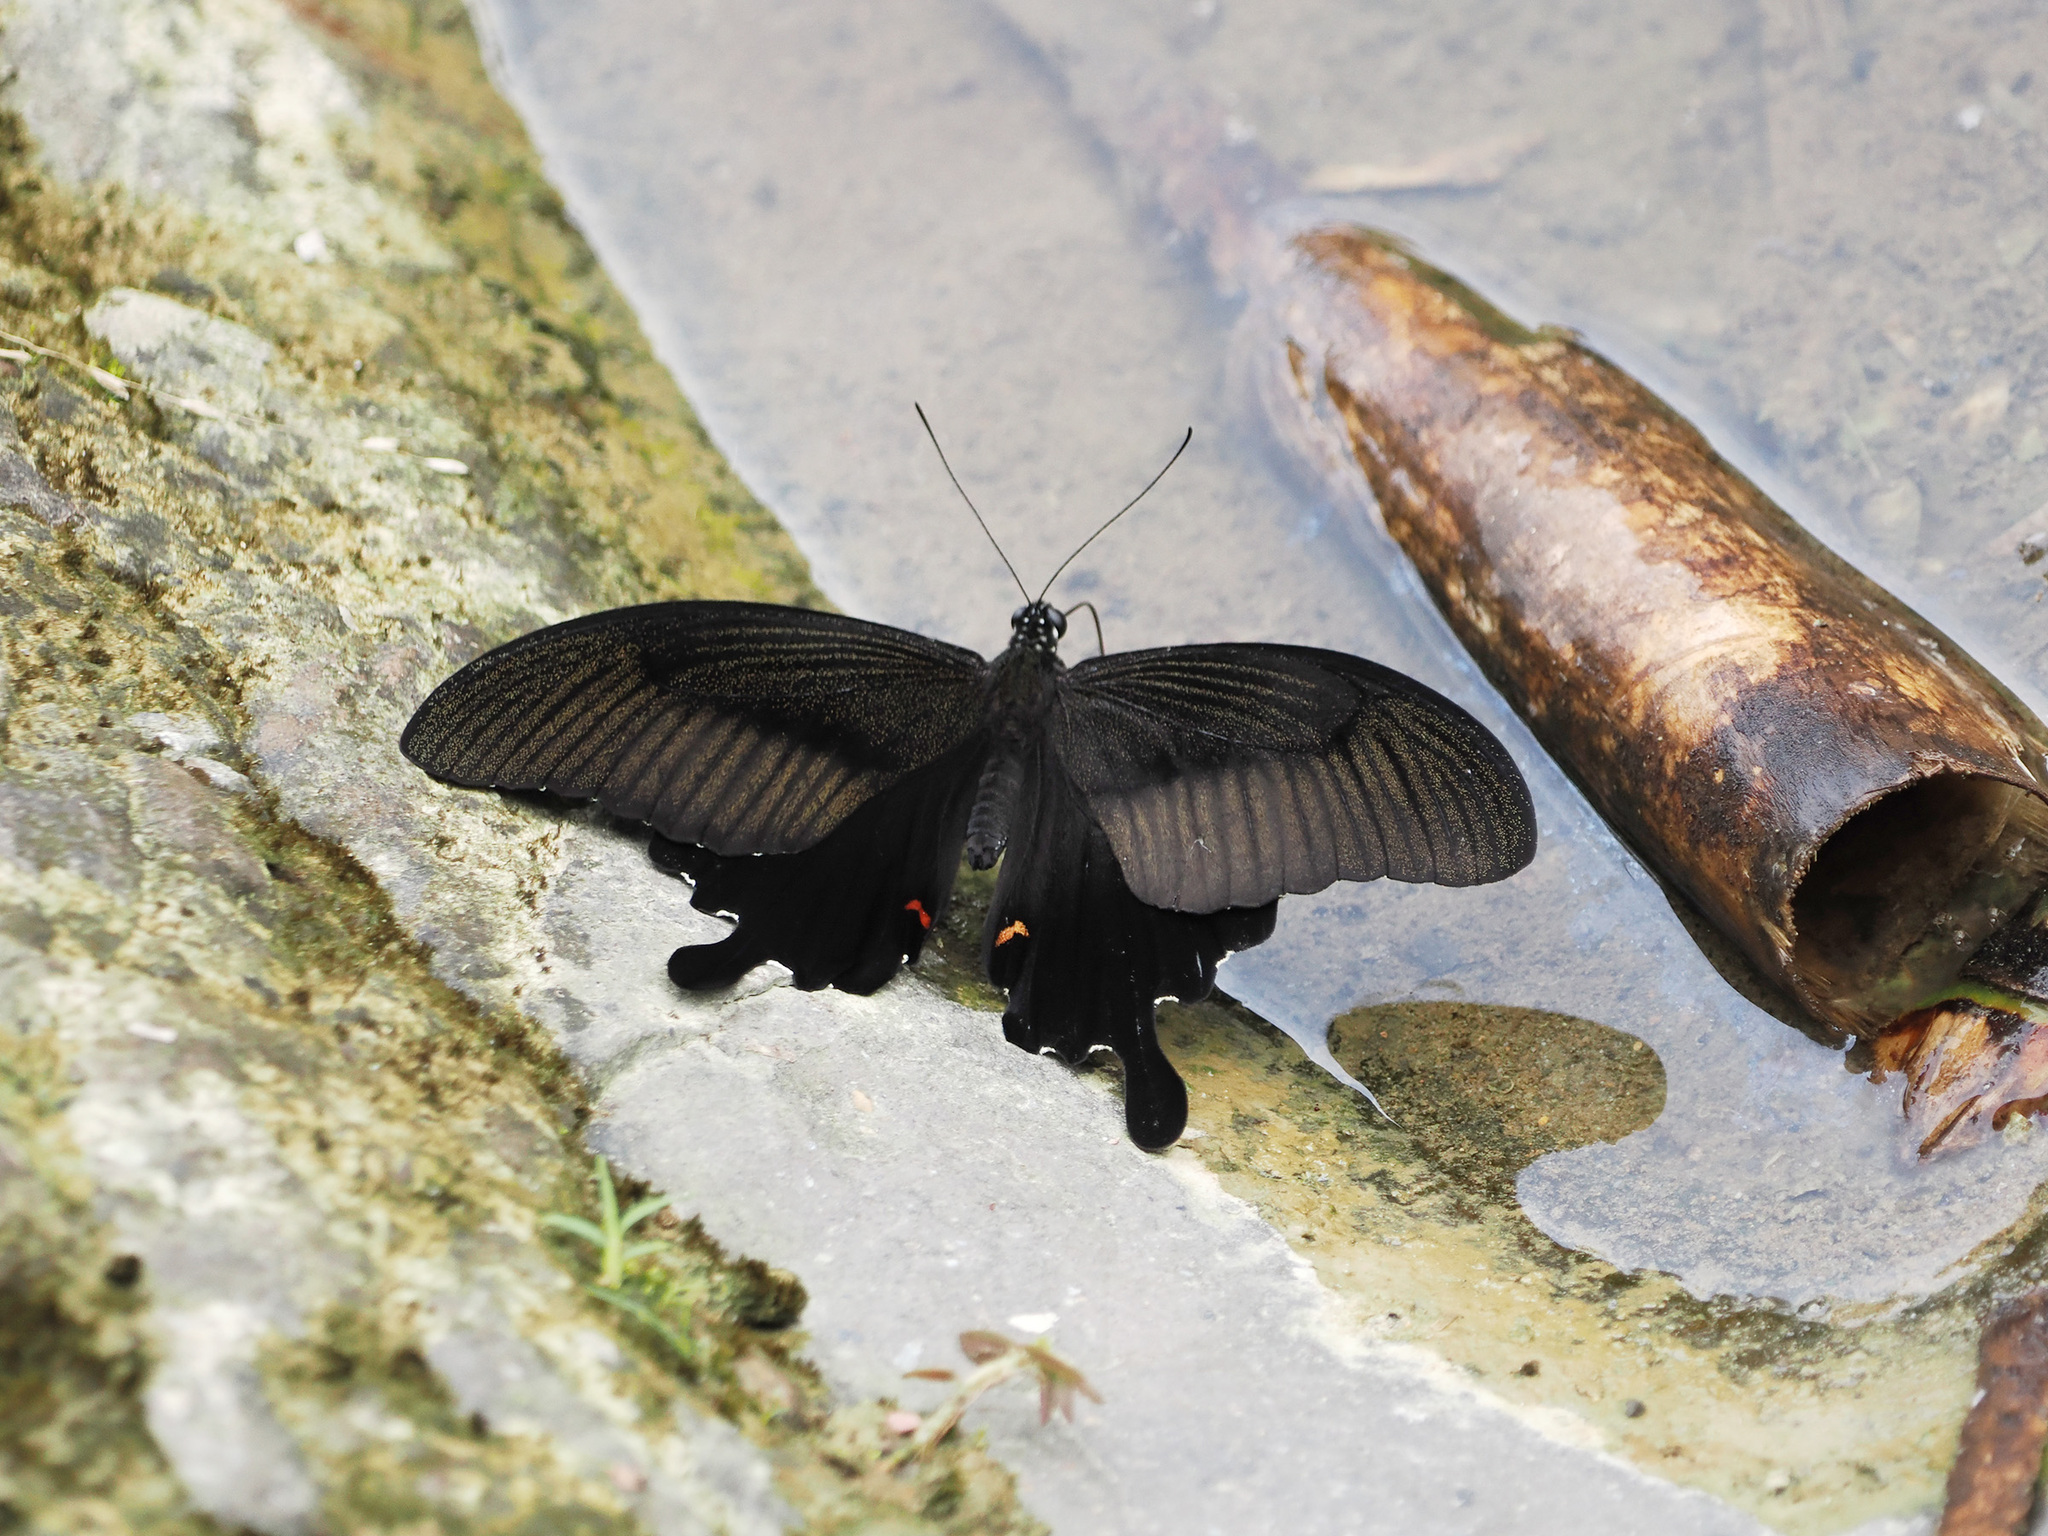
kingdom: Animalia
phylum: Arthropoda
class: Insecta
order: Lepidoptera
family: Papilionidae
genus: Papilio
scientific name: Papilio helenus
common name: Red helen
